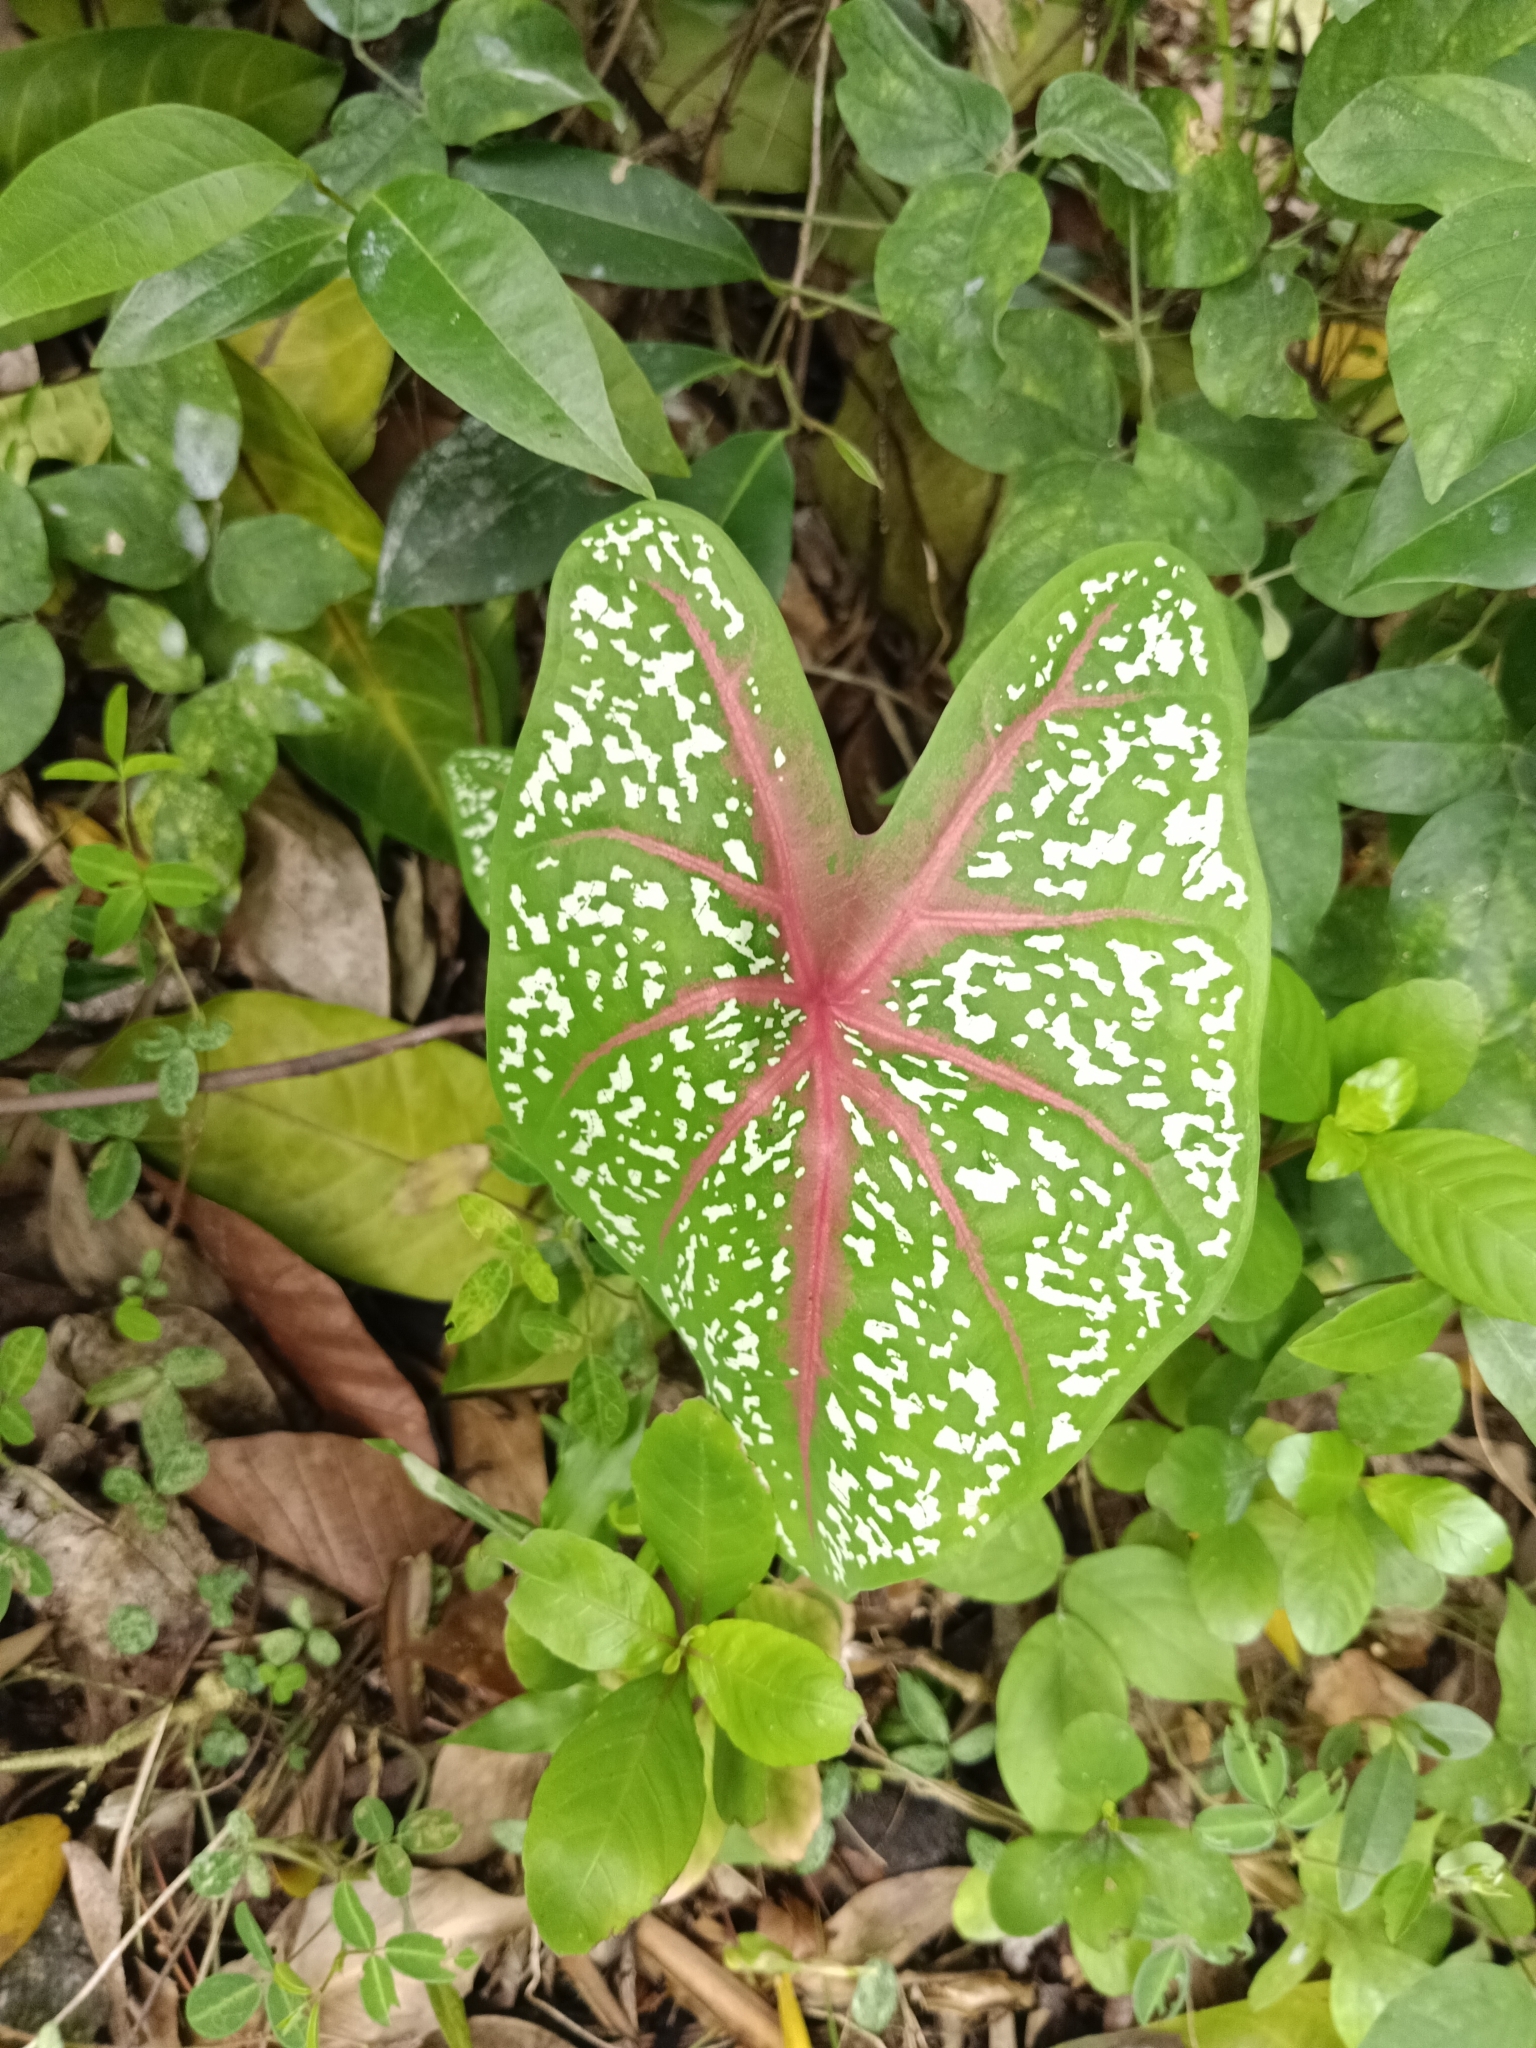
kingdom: Plantae
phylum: Tracheophyta
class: Liliopsida
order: Alismatales
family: Araceae
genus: Caladium
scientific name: Caladium bicolor
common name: Artist's pallet
